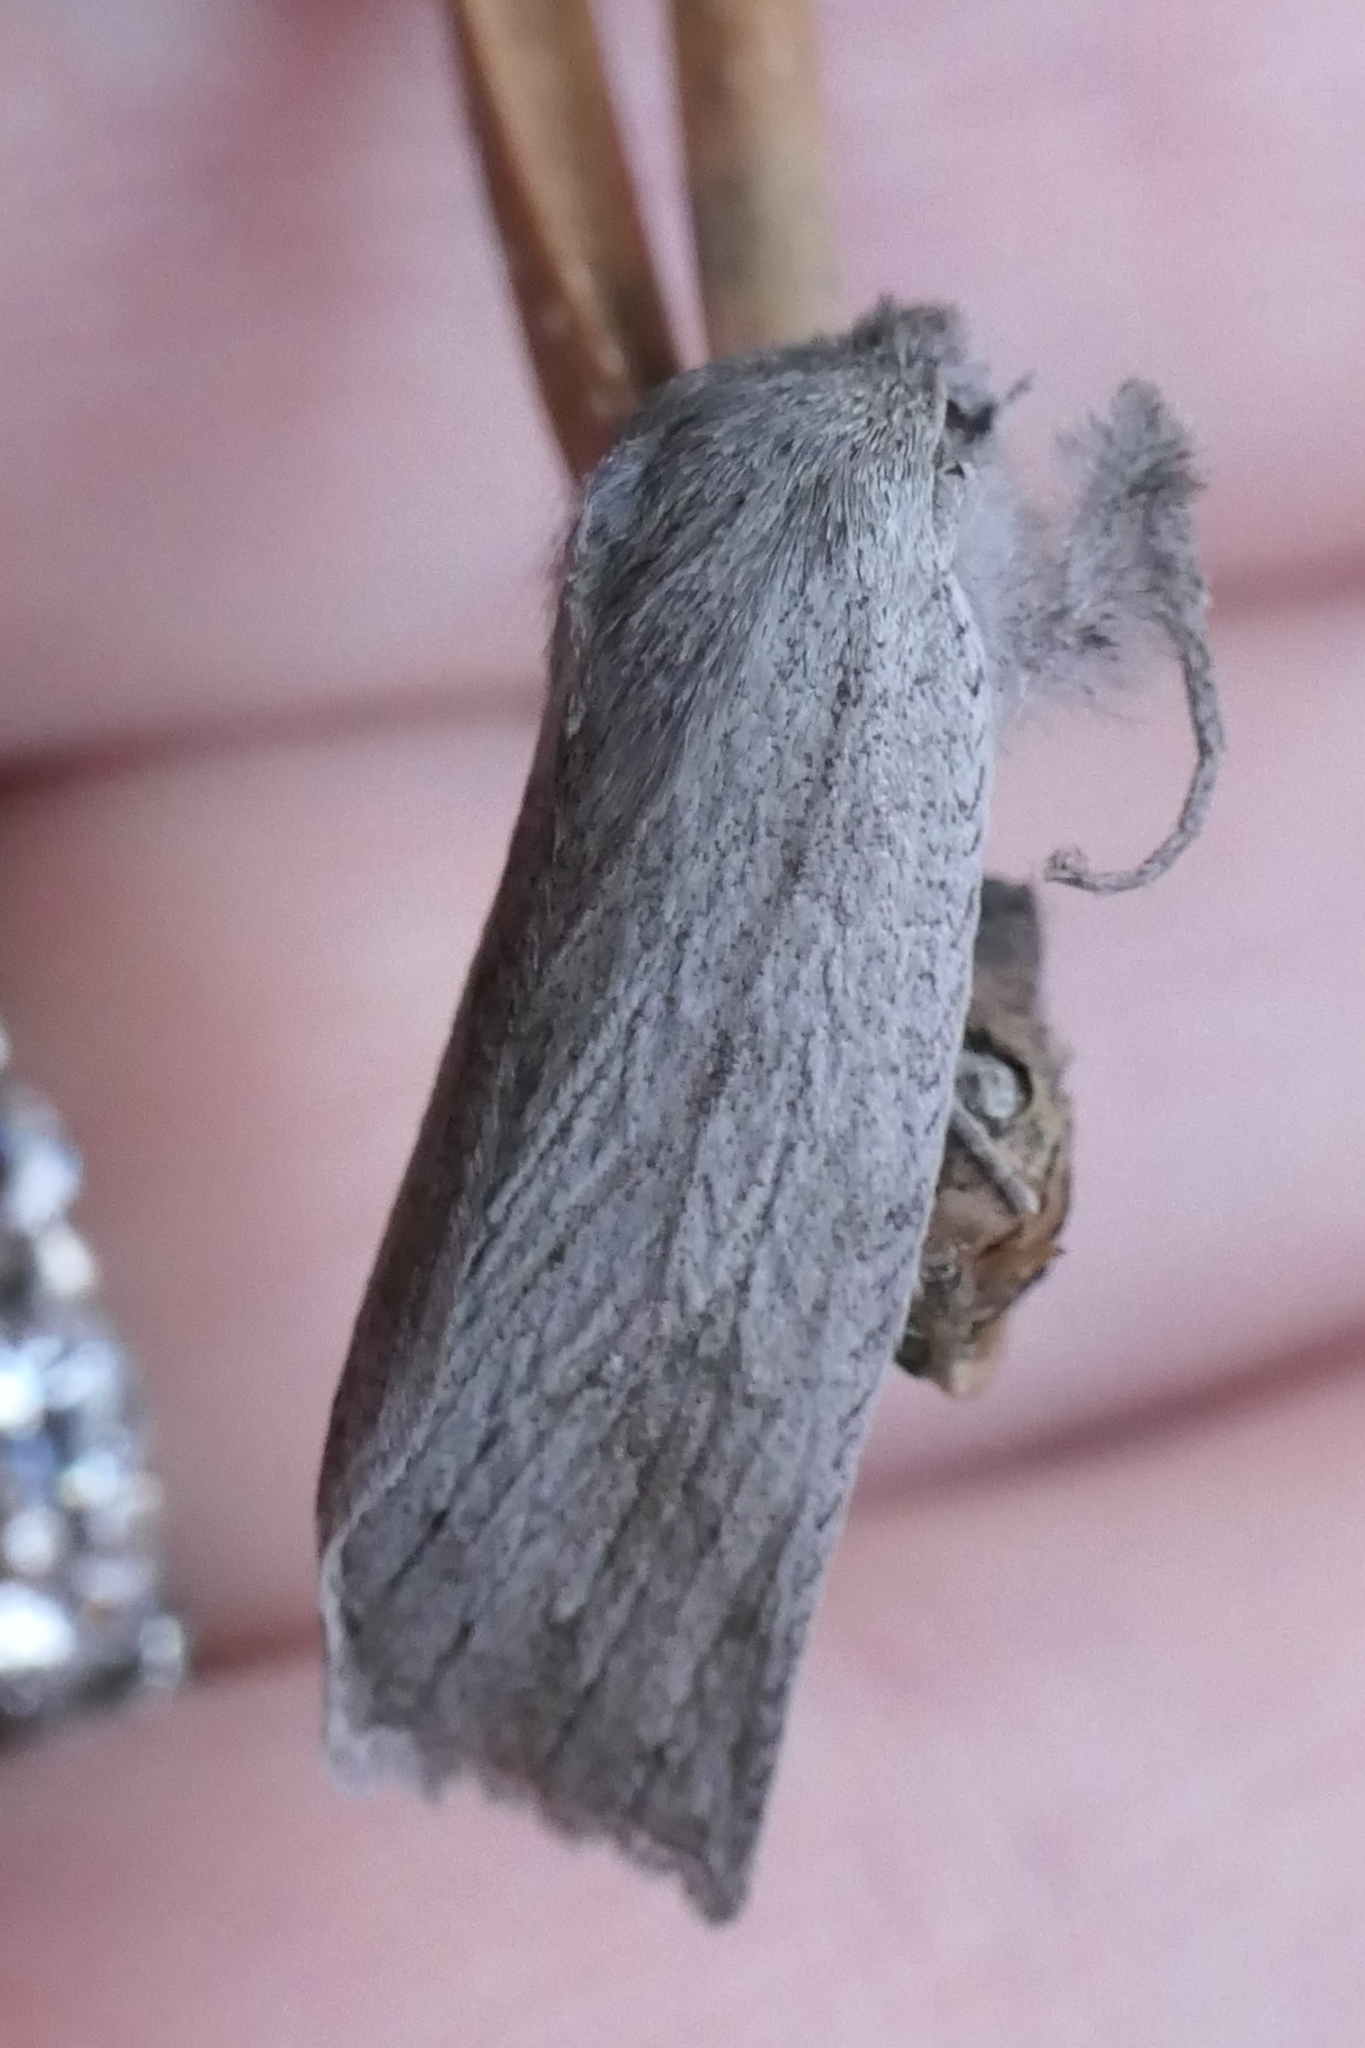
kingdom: Animalia
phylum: Arthropoda
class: Insecta
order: Lepidoptera
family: Geometridae
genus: Declana
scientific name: Declana leptomera
